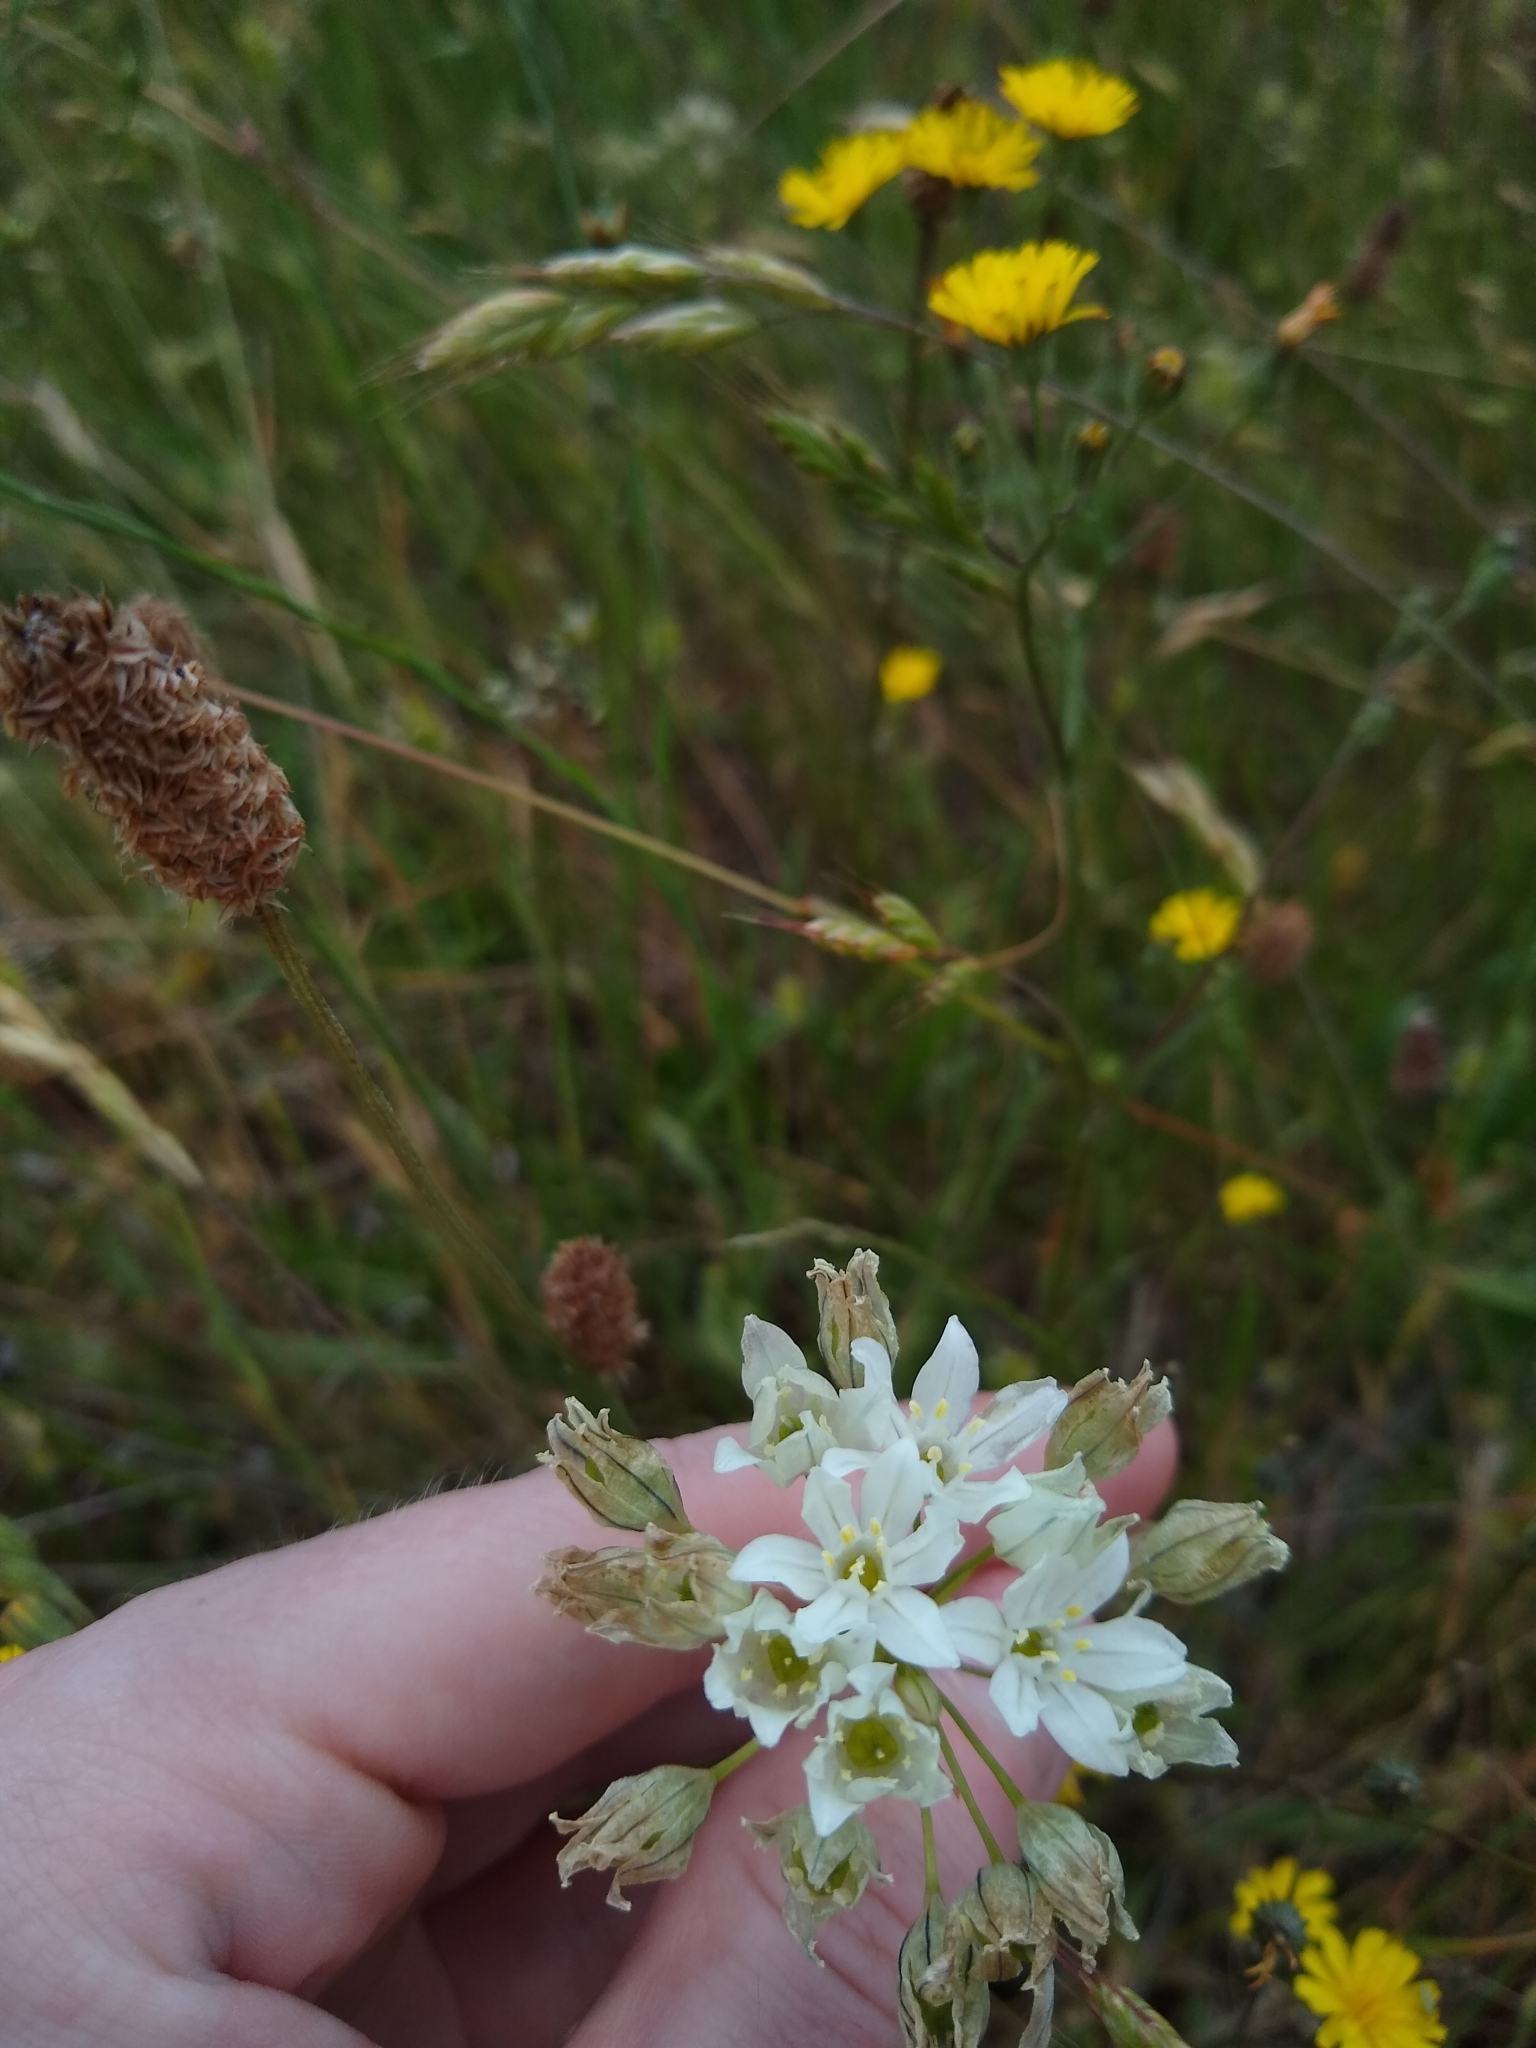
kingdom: Plantae
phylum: Tracheophyta
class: Liliopsida
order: Asparagales
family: Asparagaceae
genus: Triteleia
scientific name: Triteleia hyacinthina
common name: White brodiaea
